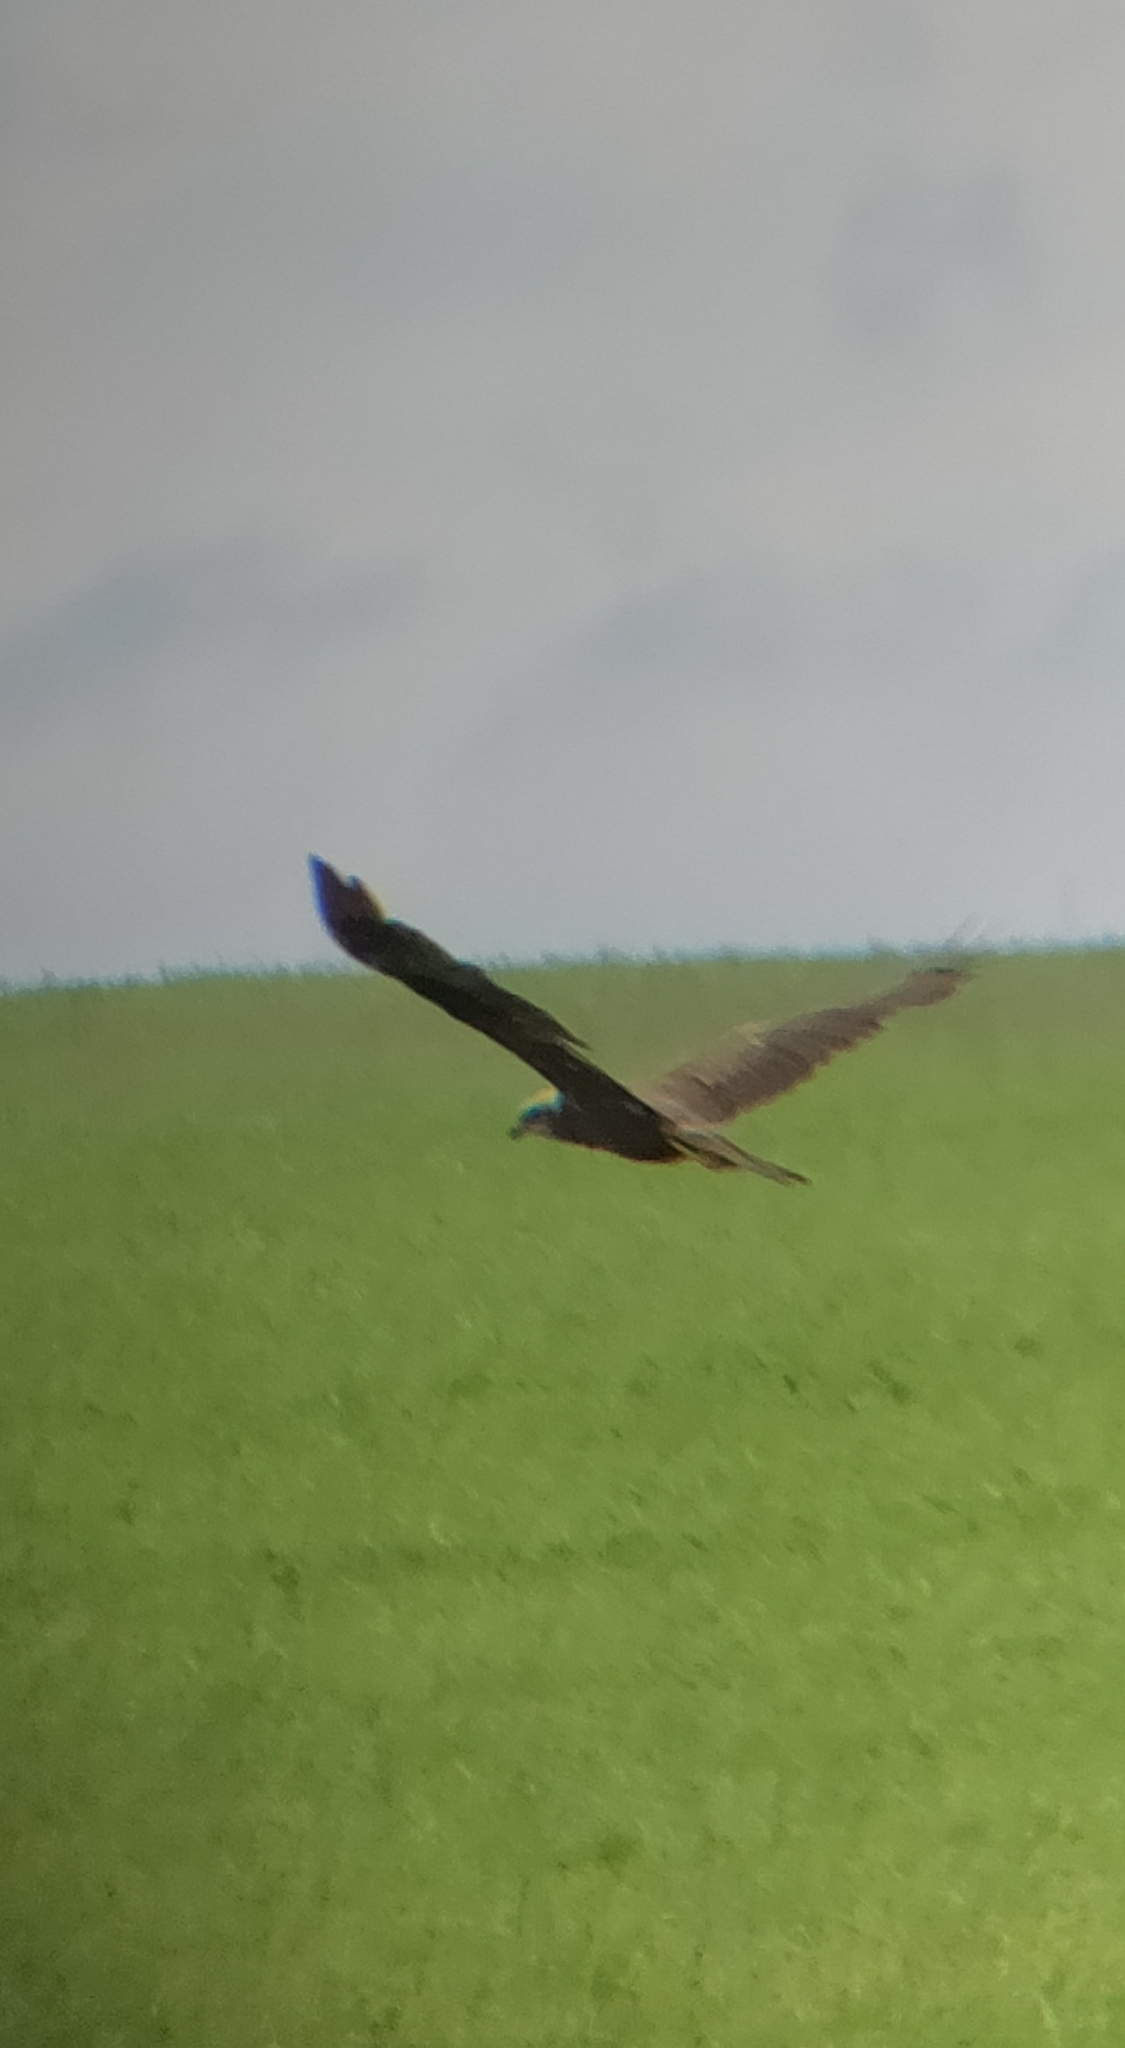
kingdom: Animalia
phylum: Chordata
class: Aves
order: Accipitriformes
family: Accipitridae
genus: Circus
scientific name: Circus aeruginosus
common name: Western marsh harrier
